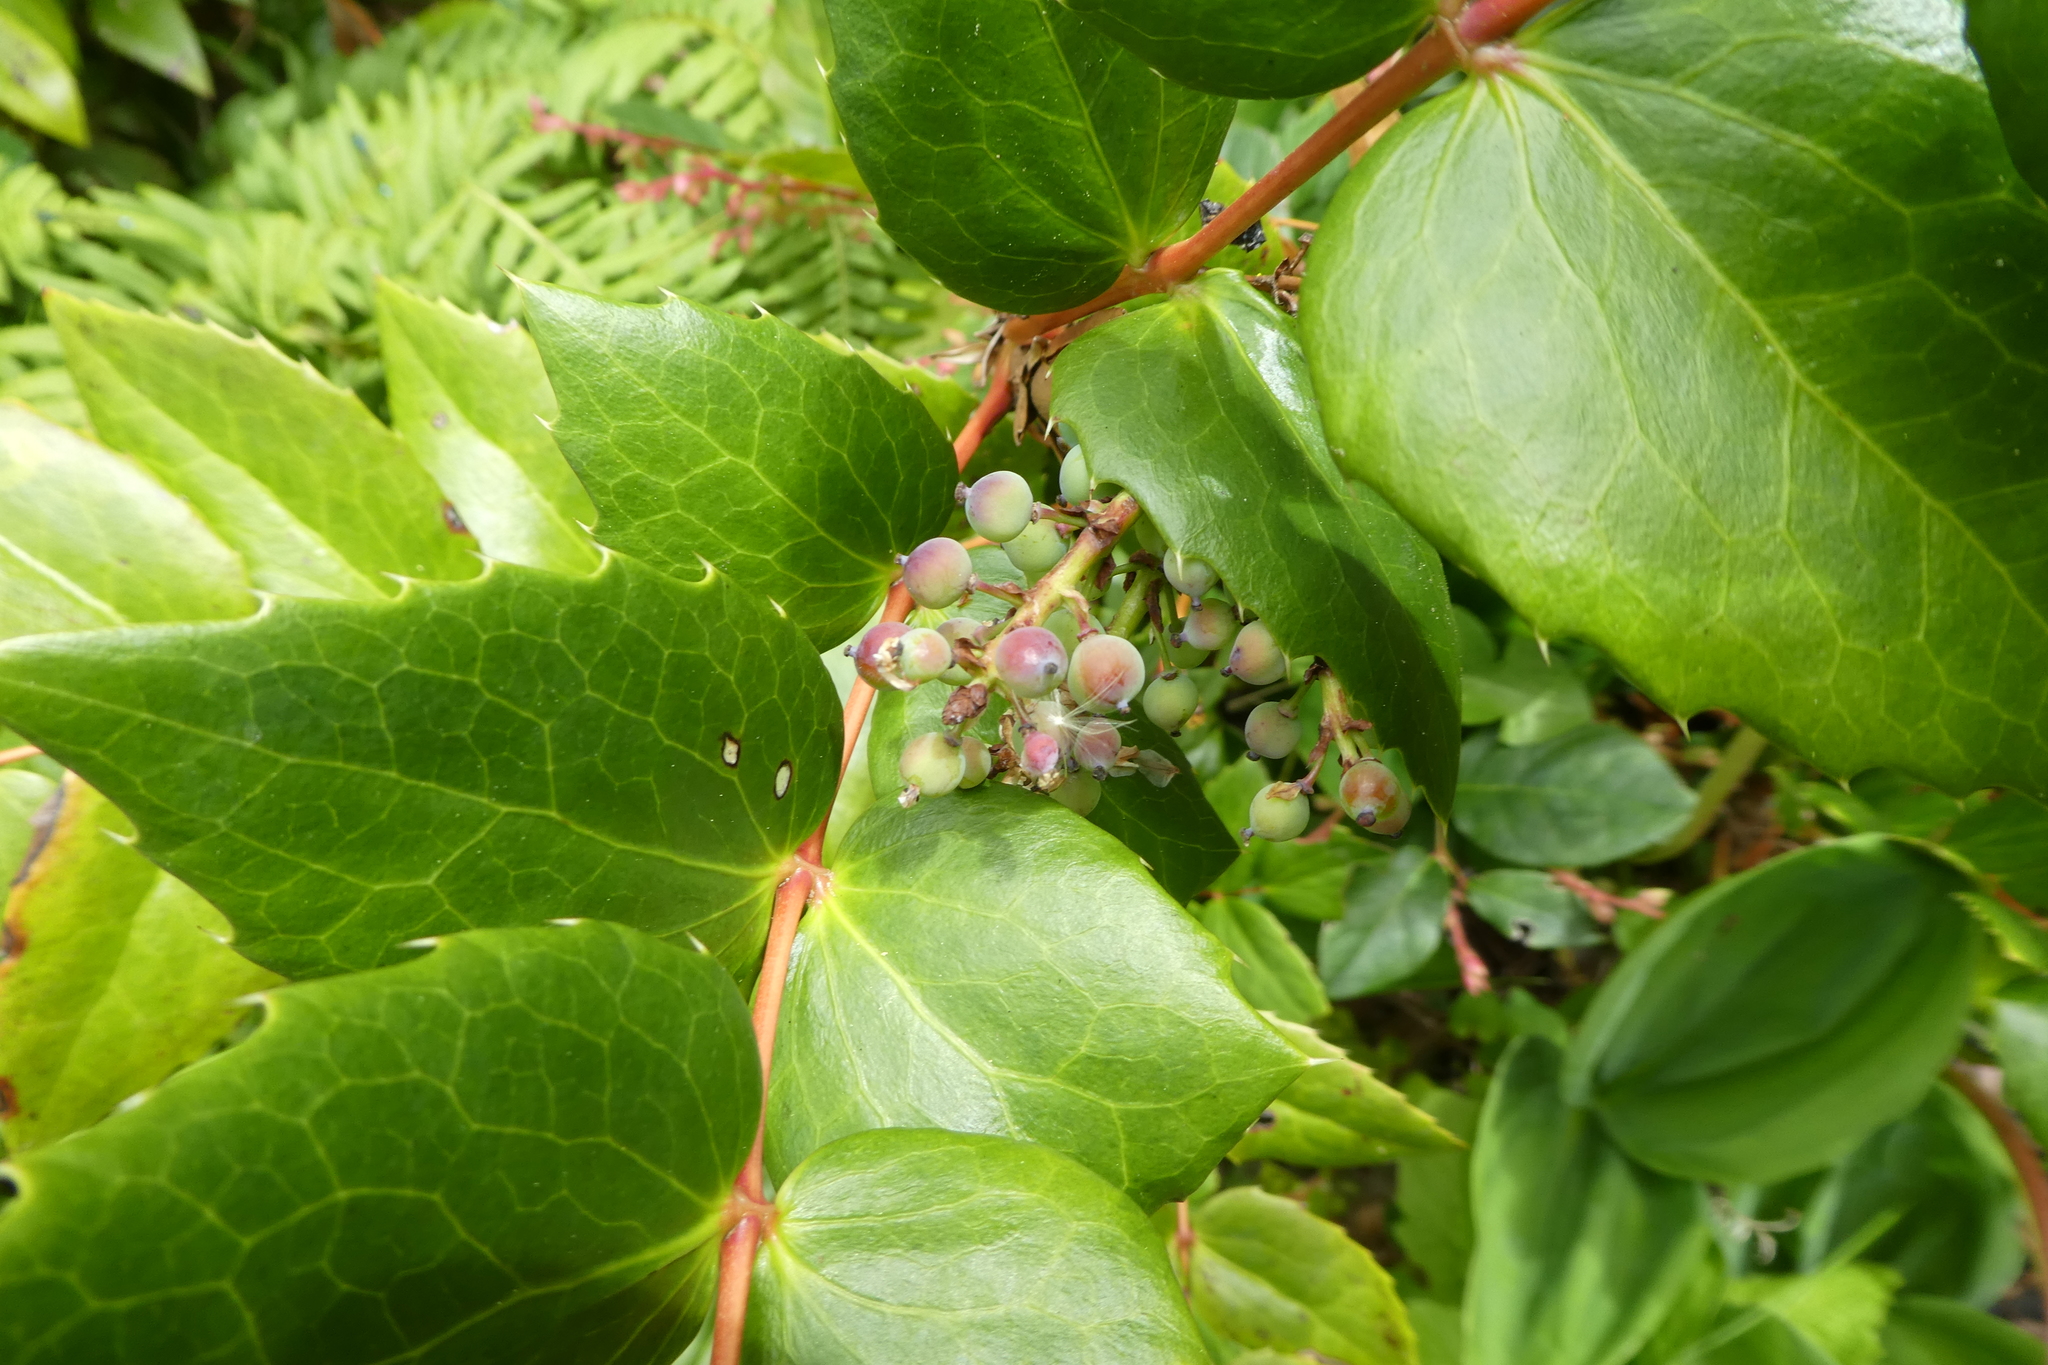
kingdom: Plantae
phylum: Tracheophyta
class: Magnoliopsida
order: Ranunculales
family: Berberidaceae
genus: Mahonia
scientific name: Mahonia nervosa
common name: Cascade oregon-grape
